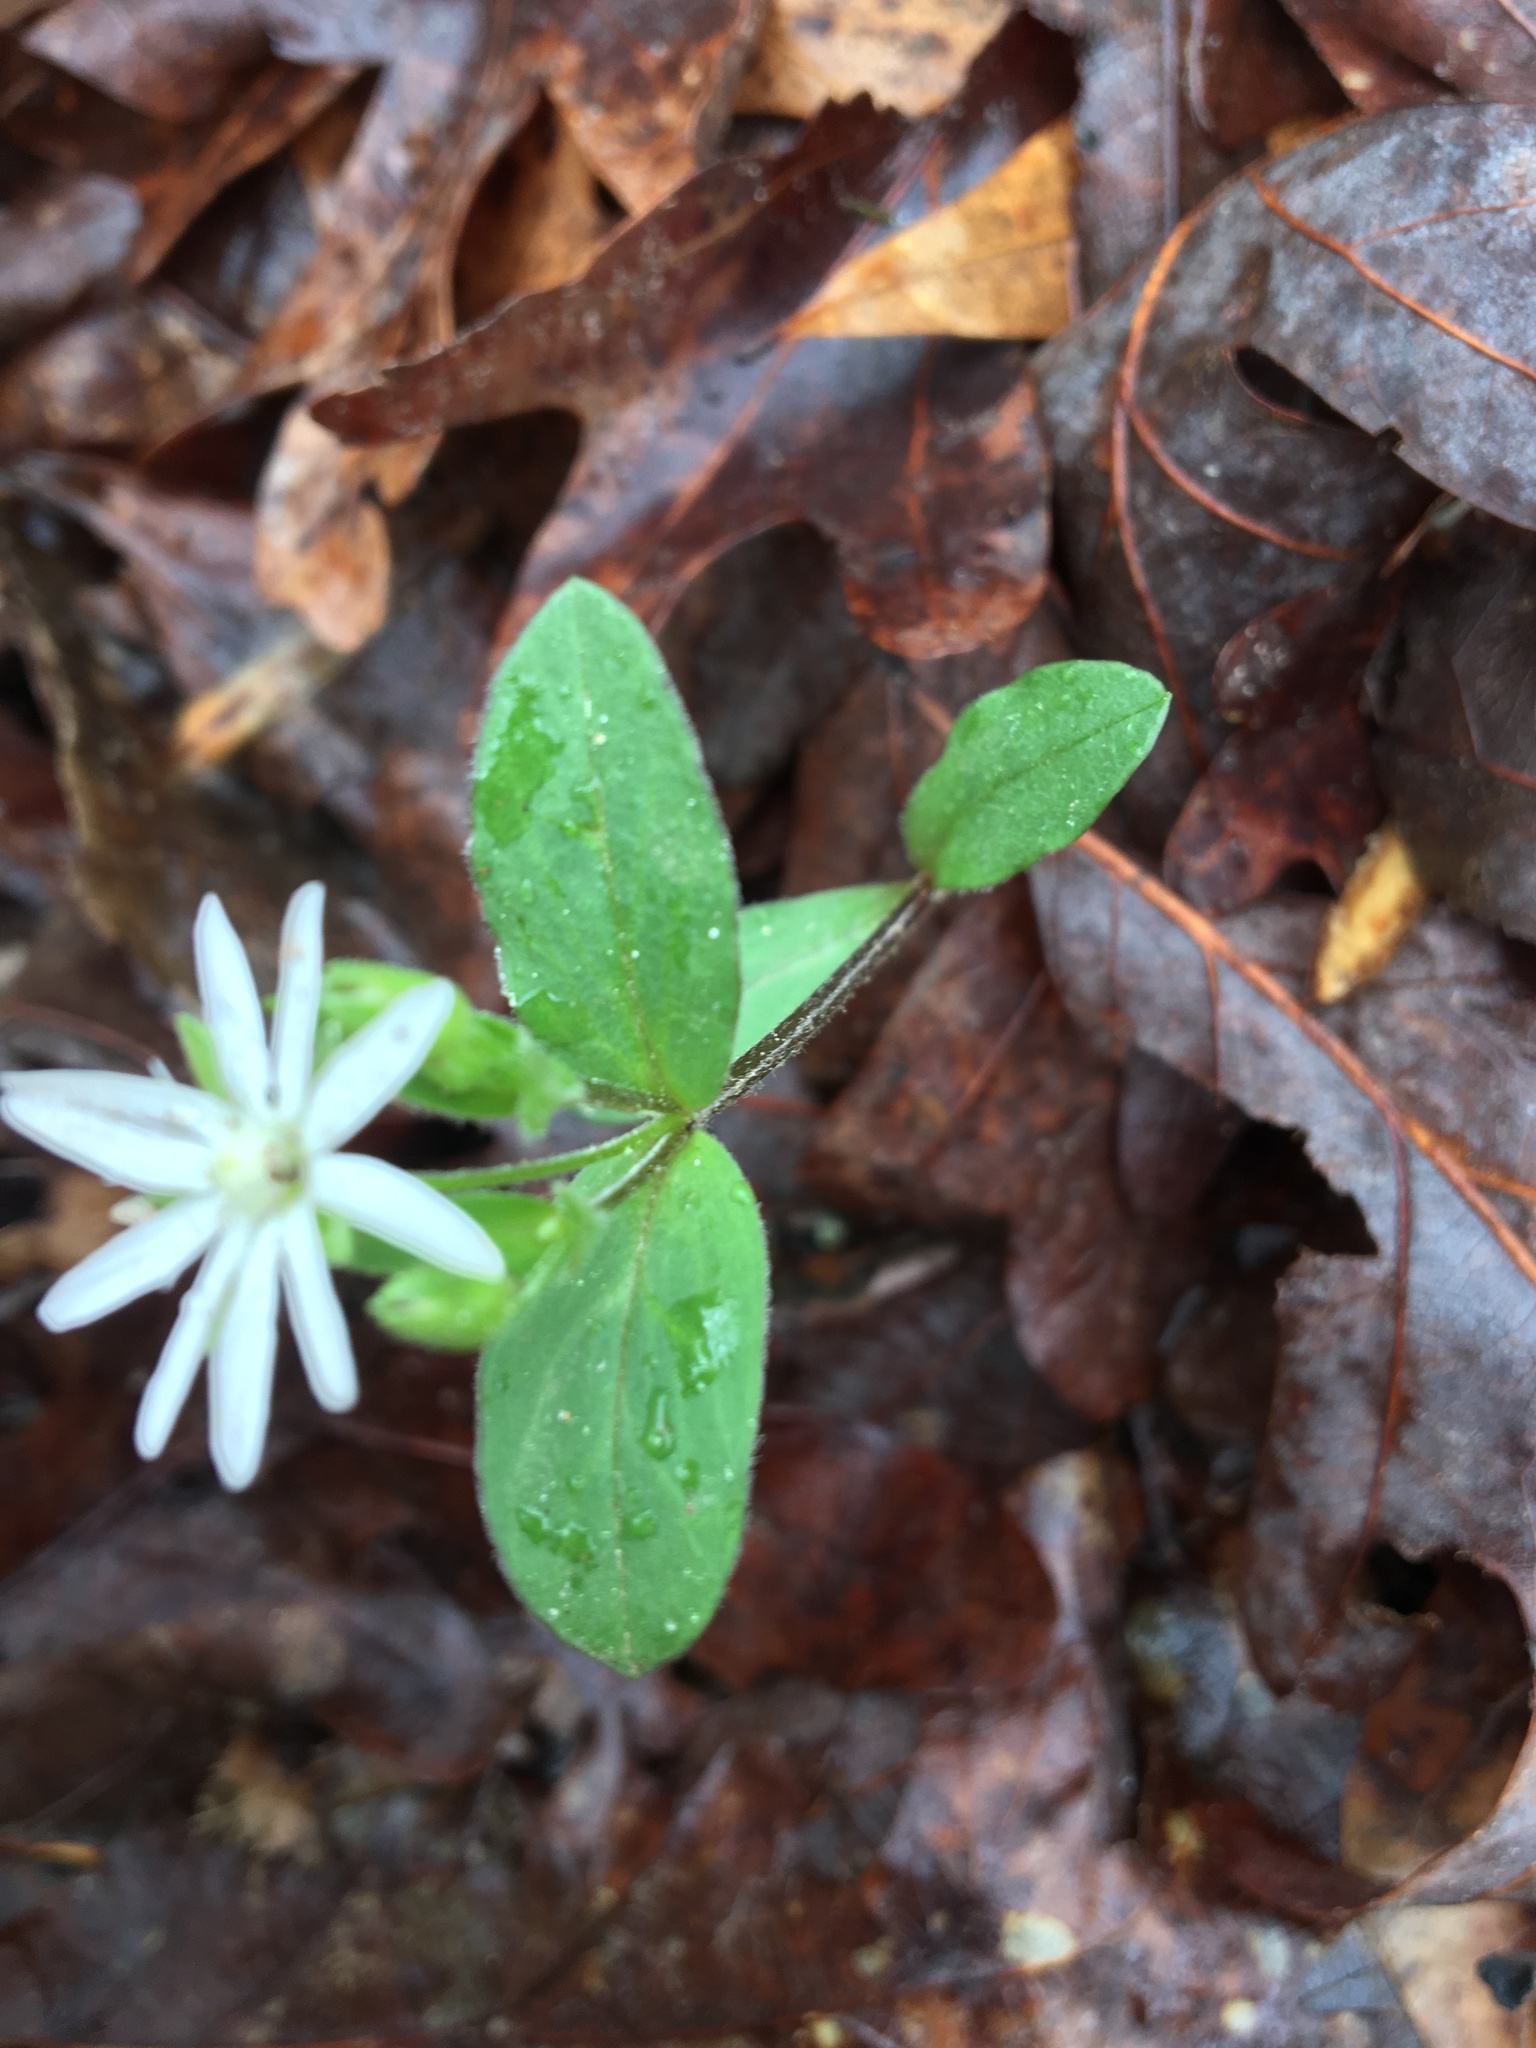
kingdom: Plantae
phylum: Tracheophyta
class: Magnoliopsida
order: Caryophyllales
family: Caryophyllaceae
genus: Stellaria
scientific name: Stellaria pubera
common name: Star chickweed
